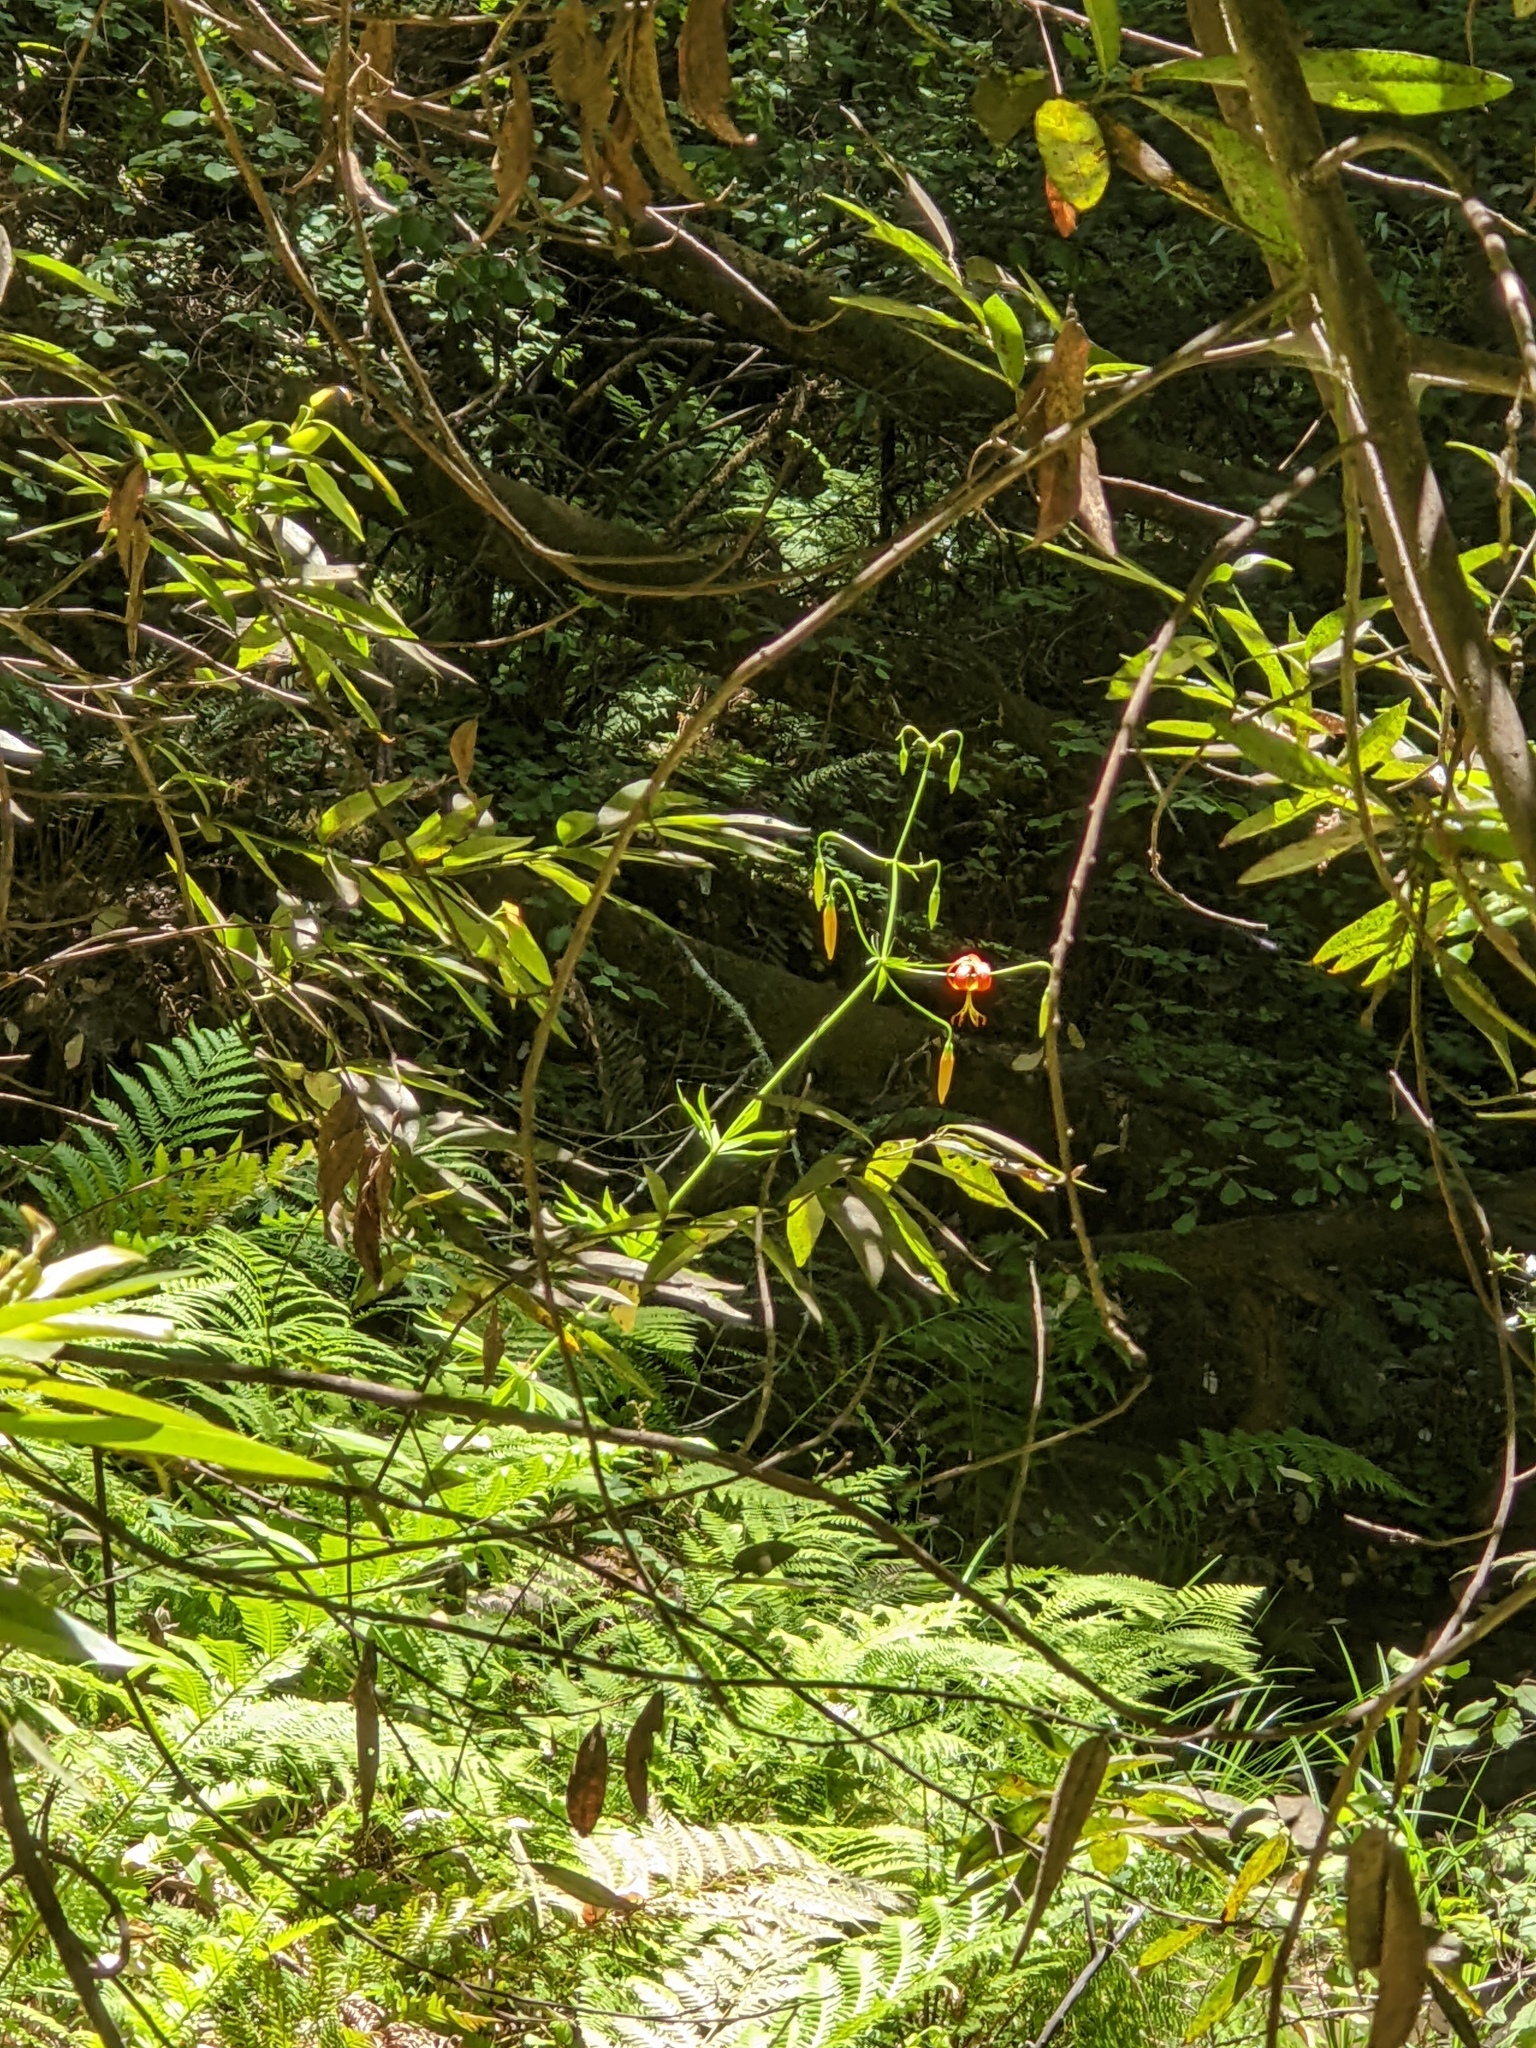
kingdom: Plantae
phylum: Tracheophyta
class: Liliopsida
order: Liliales
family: Liliaceae
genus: Lilium
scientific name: Lilium pardalinum
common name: Panther lily
